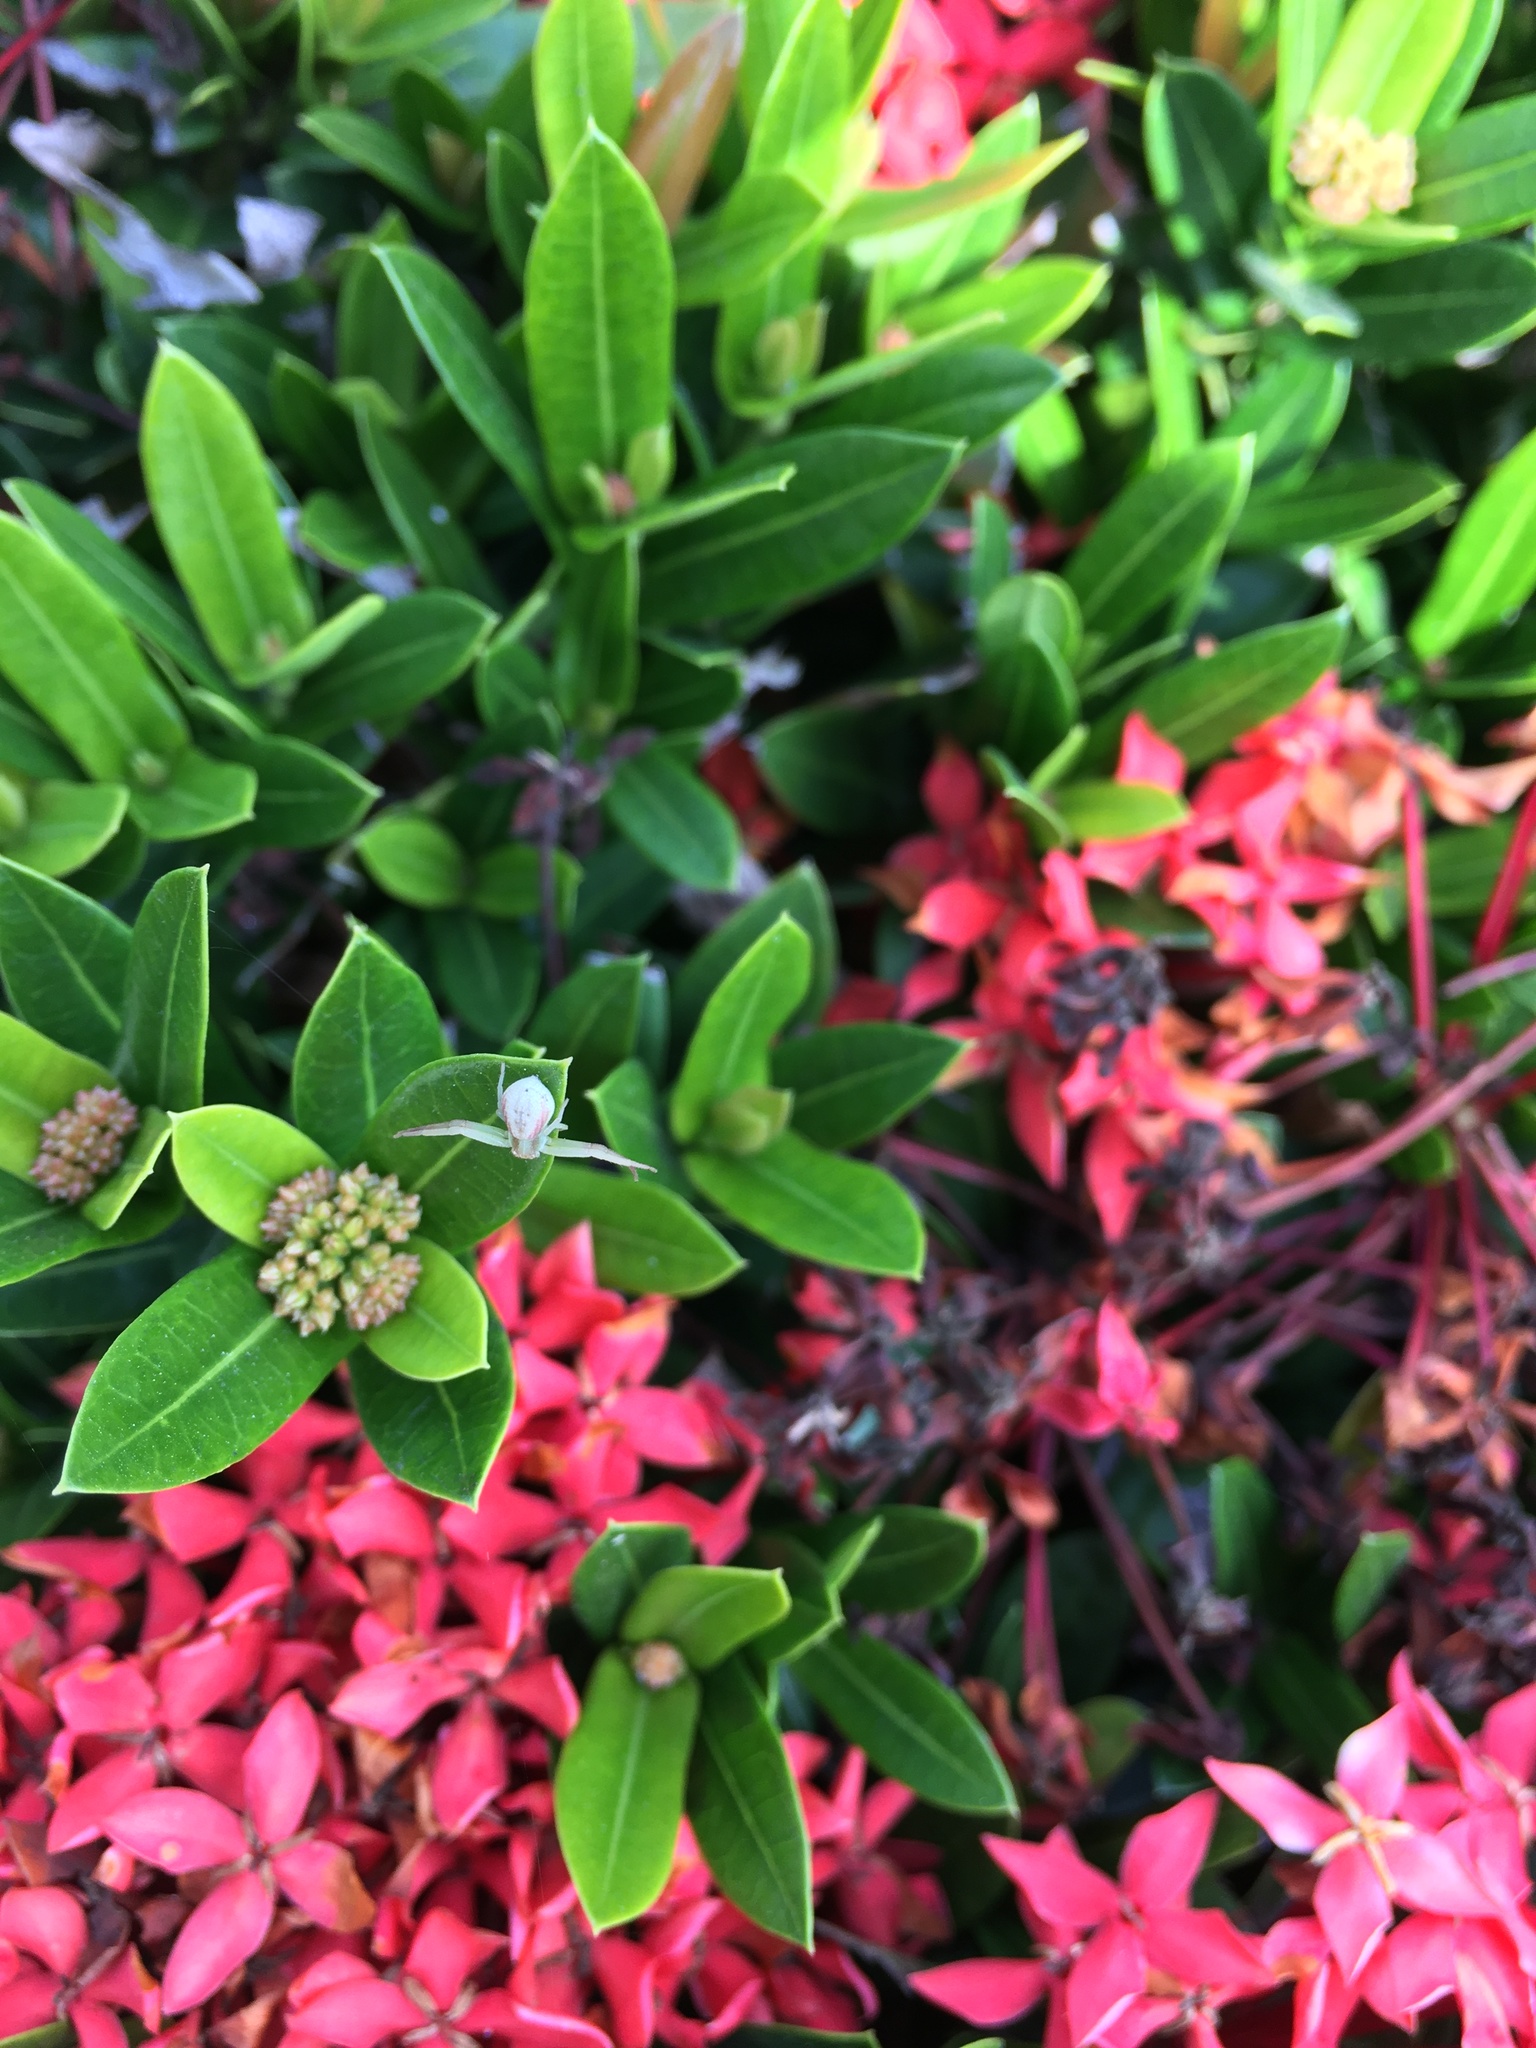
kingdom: Animalia
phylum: Arthropoda
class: Arachnida
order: Araneae
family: Thomisidae
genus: Misumena
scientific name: Misumena vatia
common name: Goldenrod crab spider
